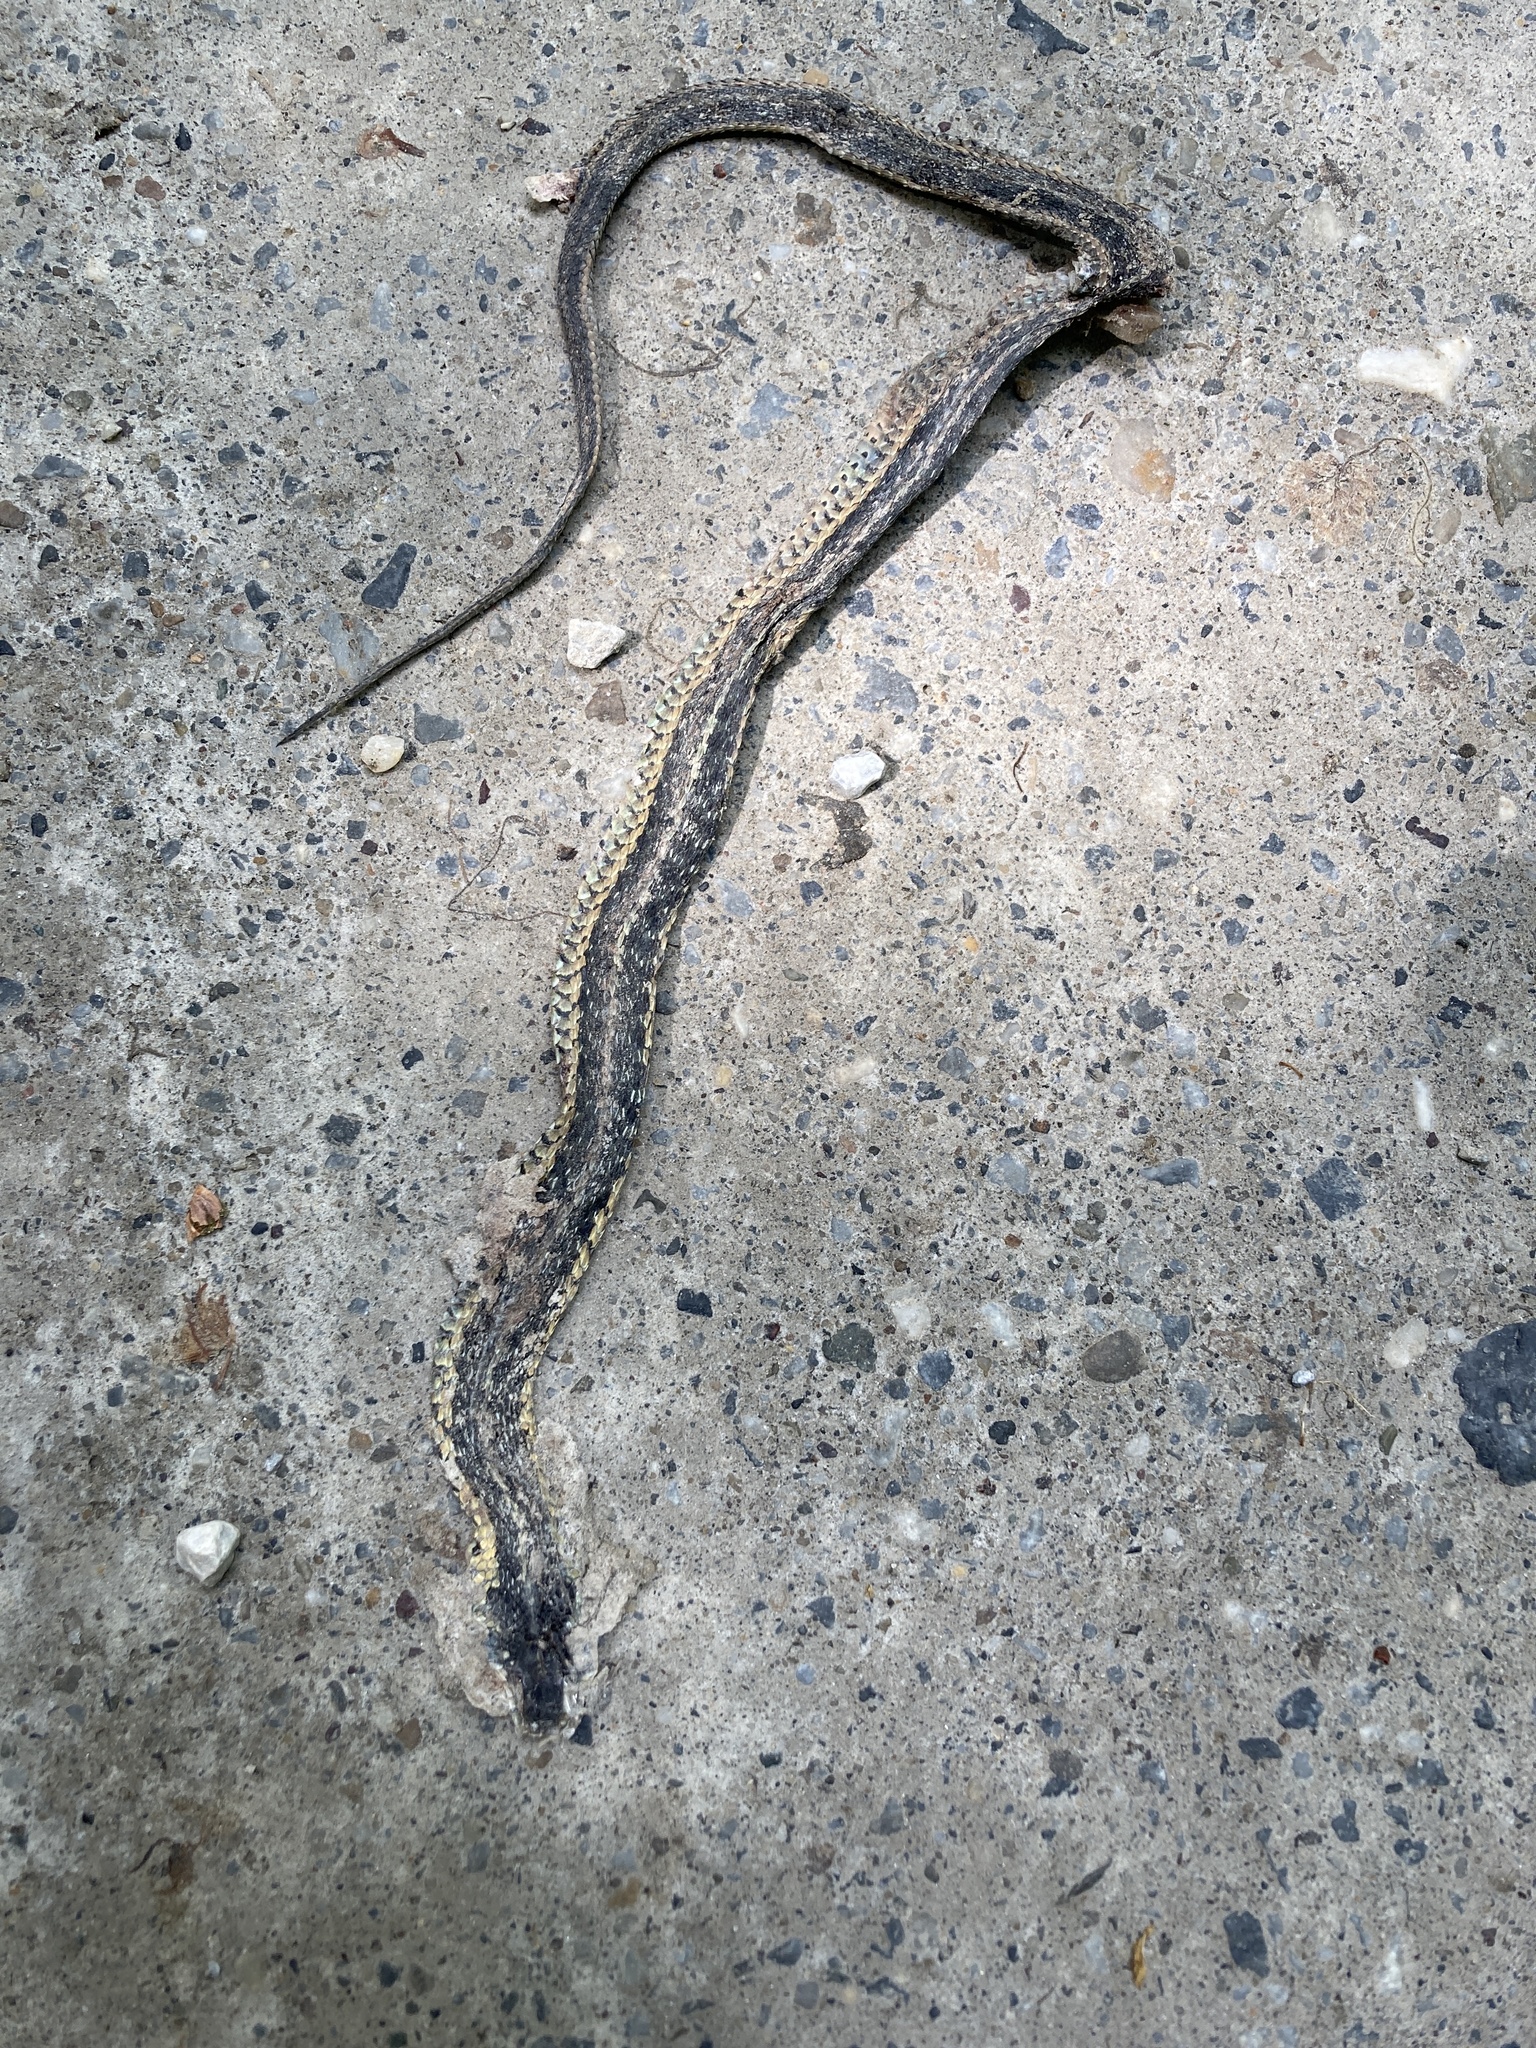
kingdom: Animalia
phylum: Chordata
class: Squamata
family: Colubridae
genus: Thamnophis
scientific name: Thamnophis sirtalis
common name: Common garter snake
